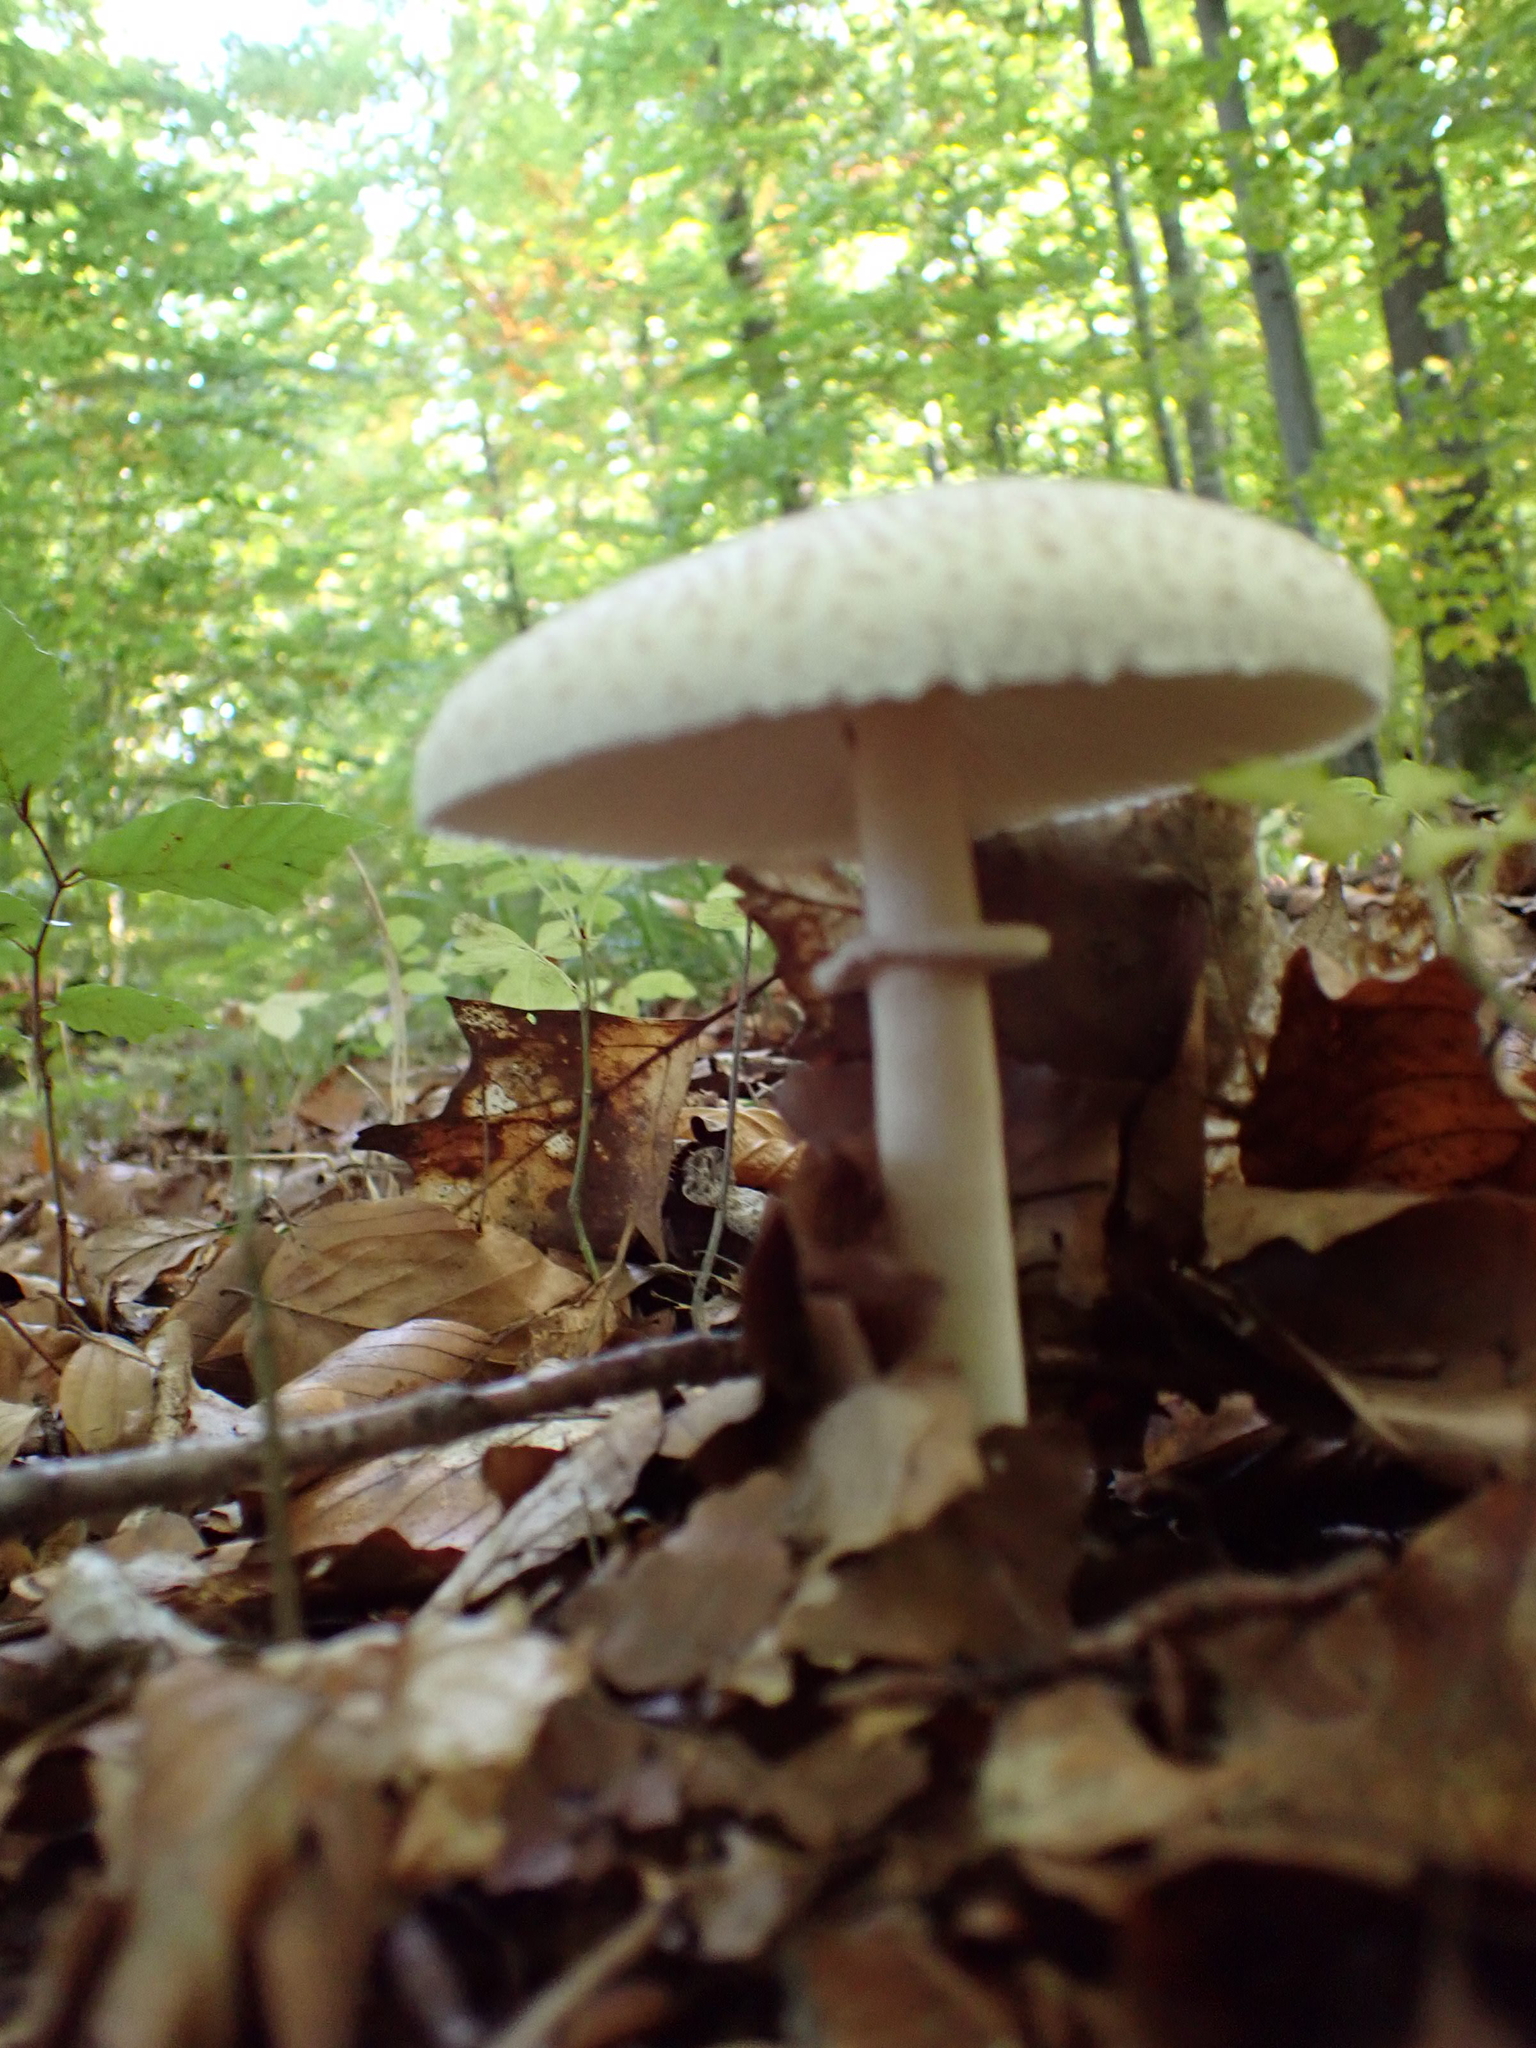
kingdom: Fungi
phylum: Basidiomycota
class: Agaricomycetes
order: Agaricales
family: Agaricaceae
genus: Macrolepiota
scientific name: Macrolepiota mastoidea
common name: Slender parasol
